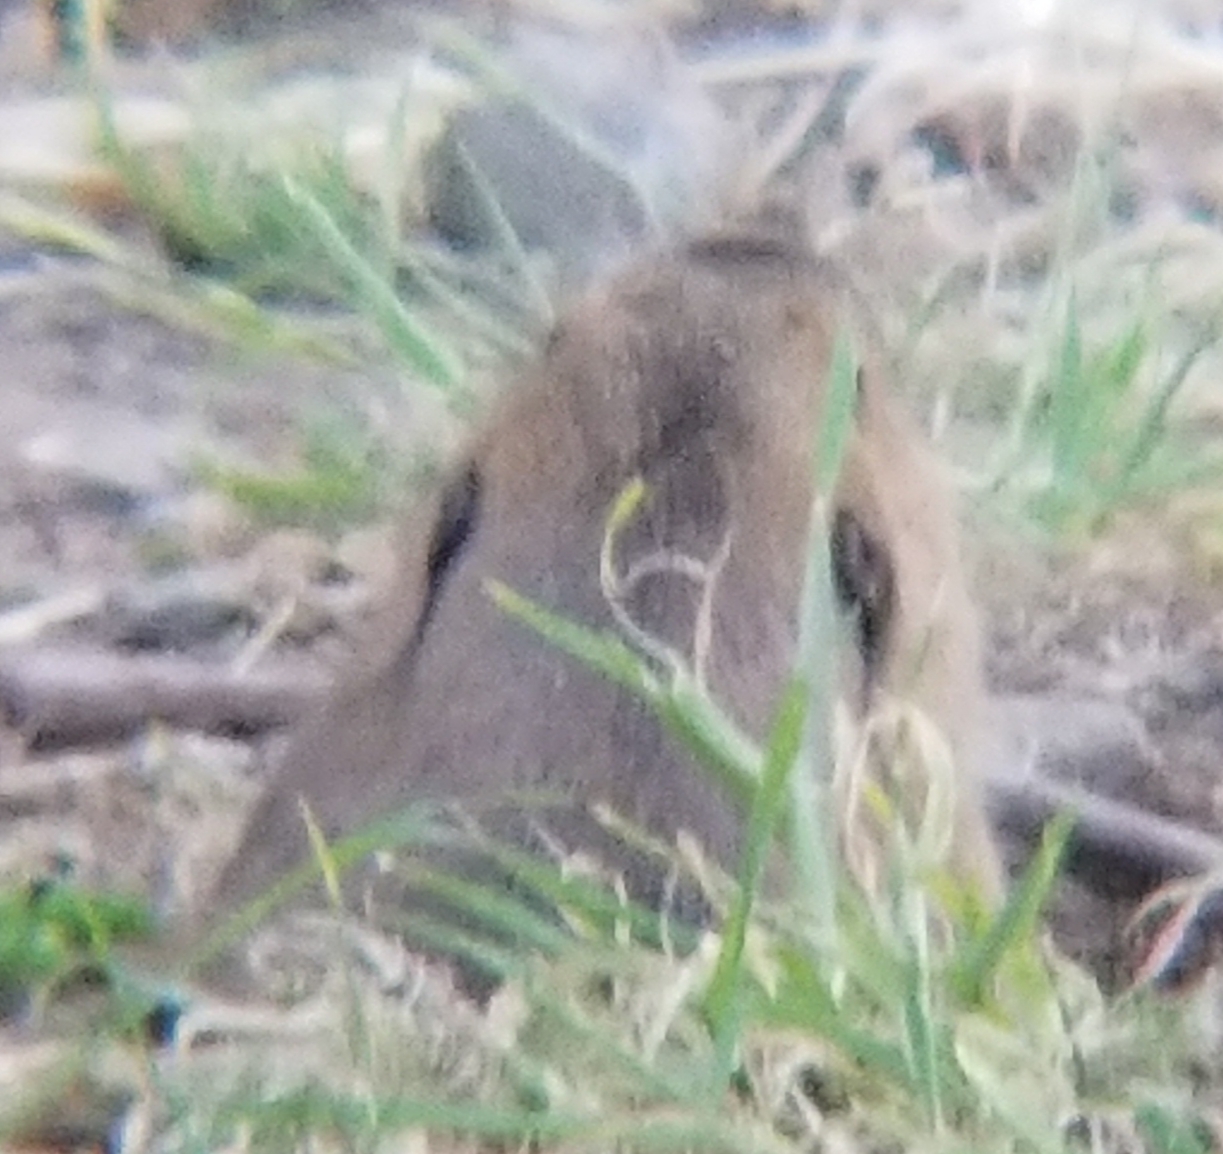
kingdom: Animalia
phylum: Chordata
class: Mammalia
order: Rodentia
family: Geomyidae
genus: Thomomys
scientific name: Thomomys bottae
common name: Botta's pocket gopher
